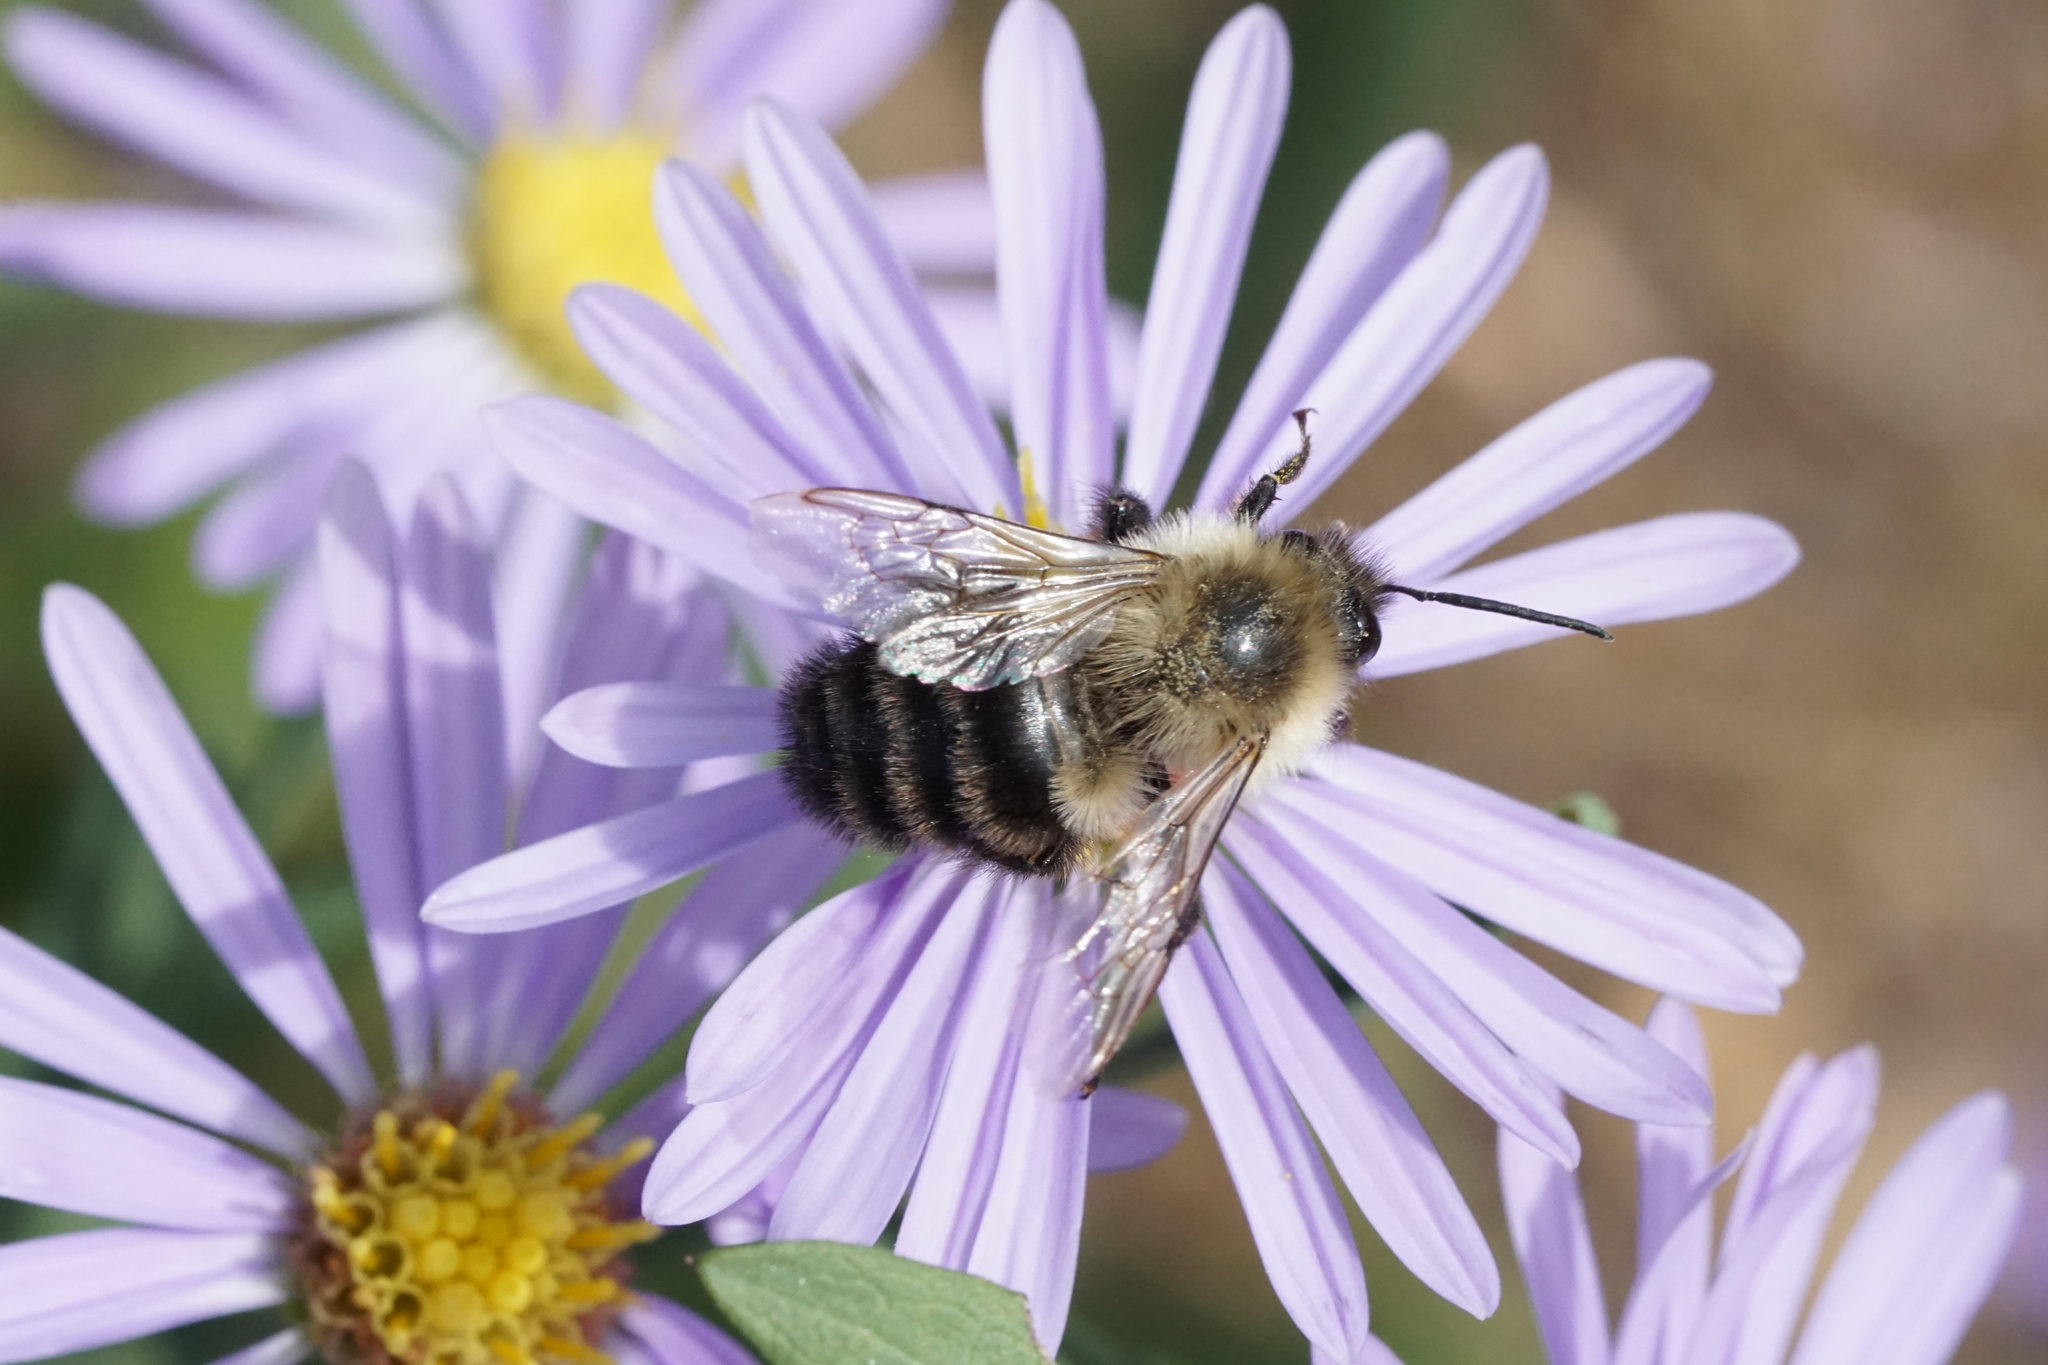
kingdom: Animalia
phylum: Arthropoda
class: Insecta
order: Hymenoptera
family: Apidae
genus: Bombus
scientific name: Bombus impatiens
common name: Common eastern bumble bee
